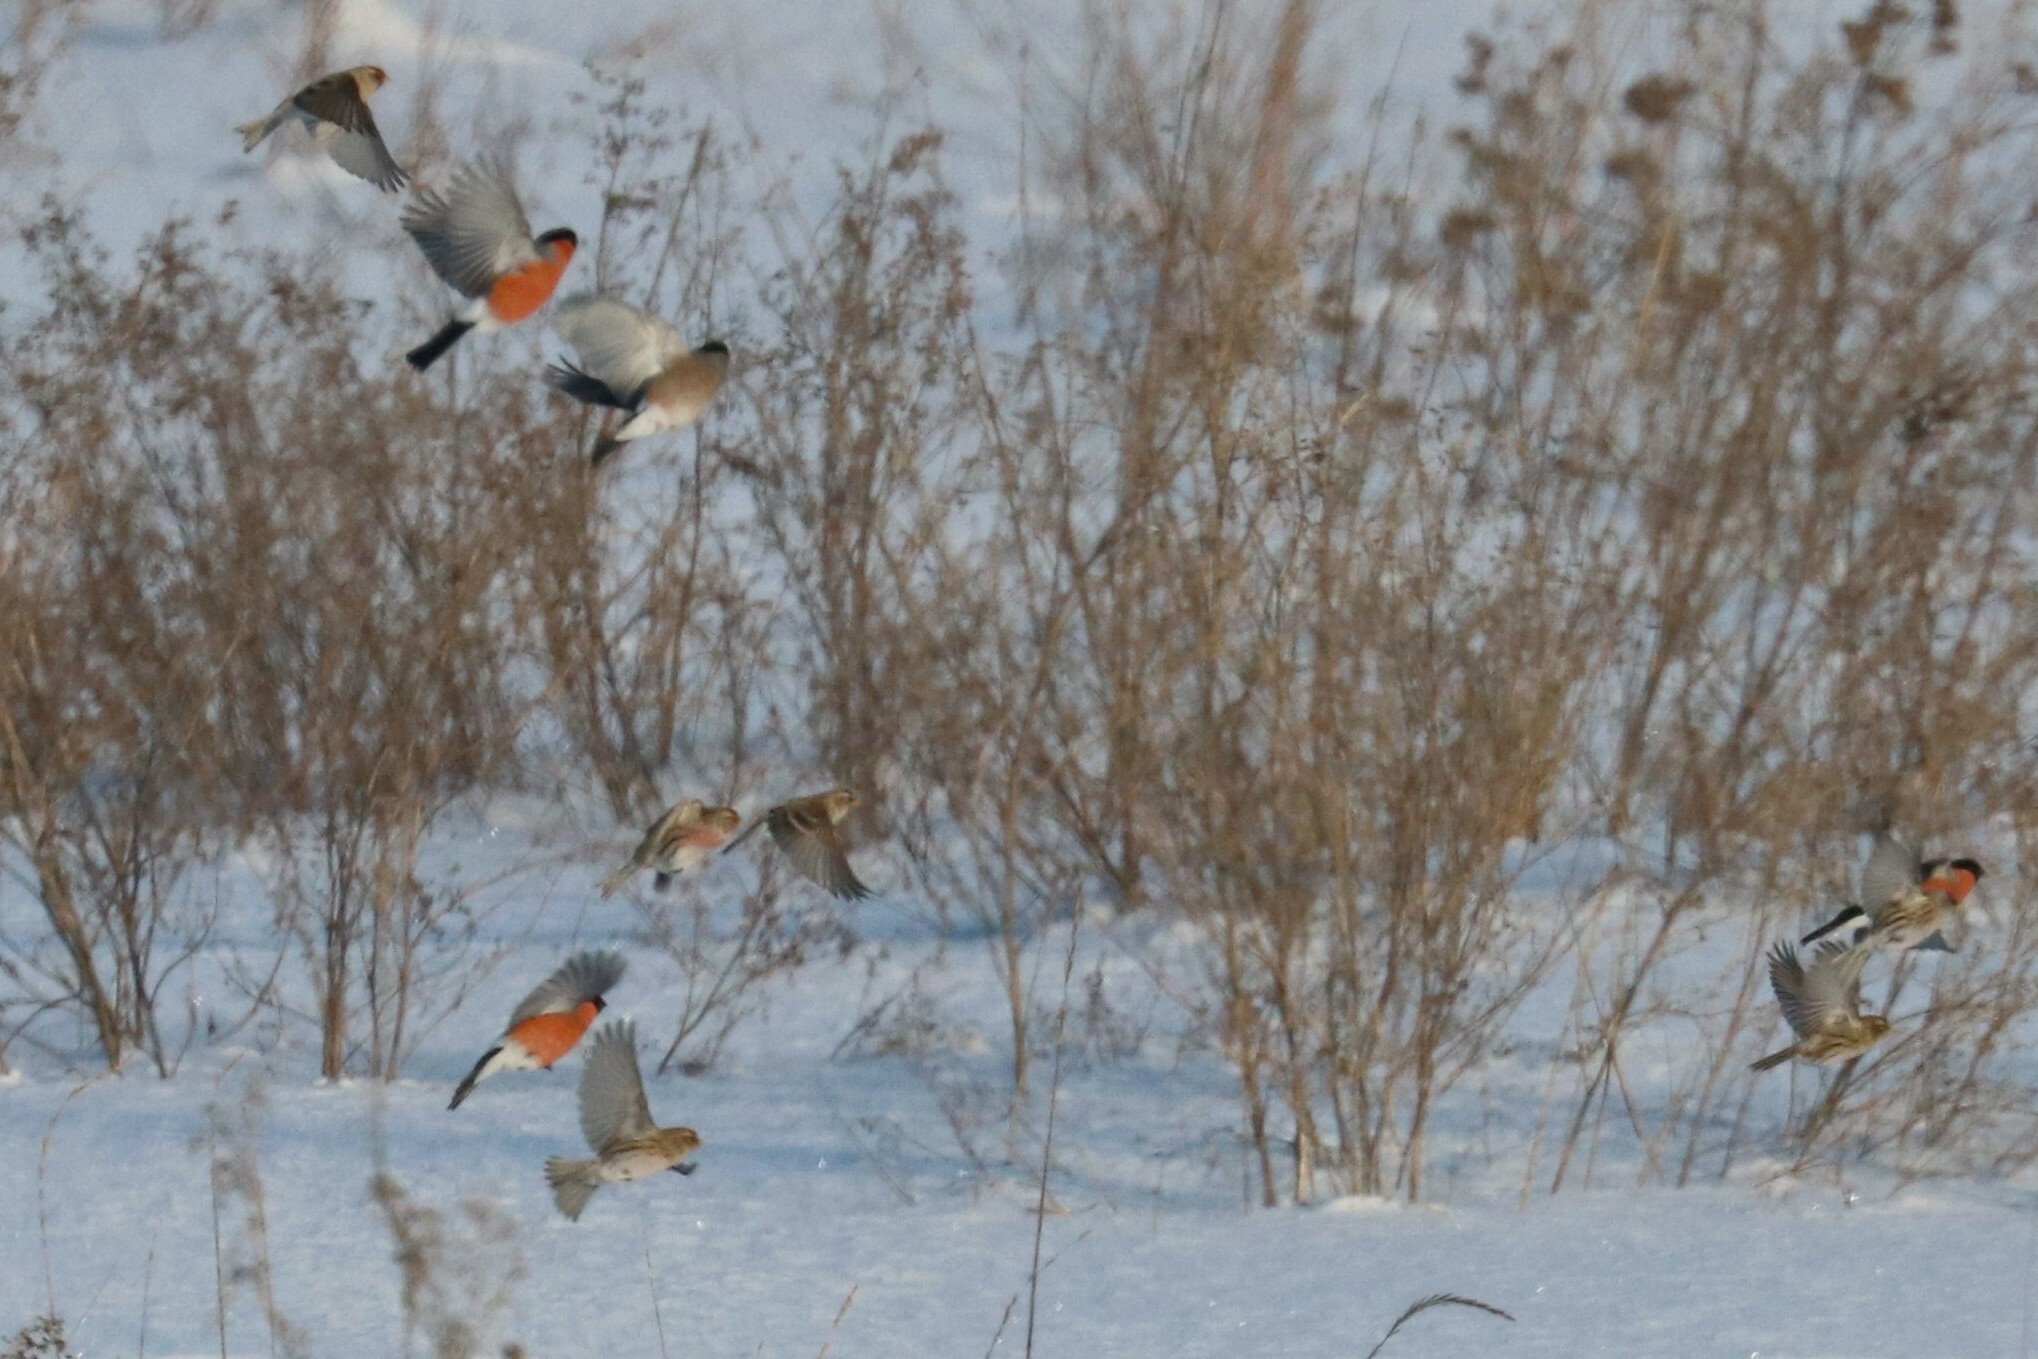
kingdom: Animalia
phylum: Chordata
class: Aves
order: Passeriformes
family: Fringillidae
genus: Pyrrhula
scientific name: Pyrrhula pyrrhula
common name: Eurasian bullfinch
